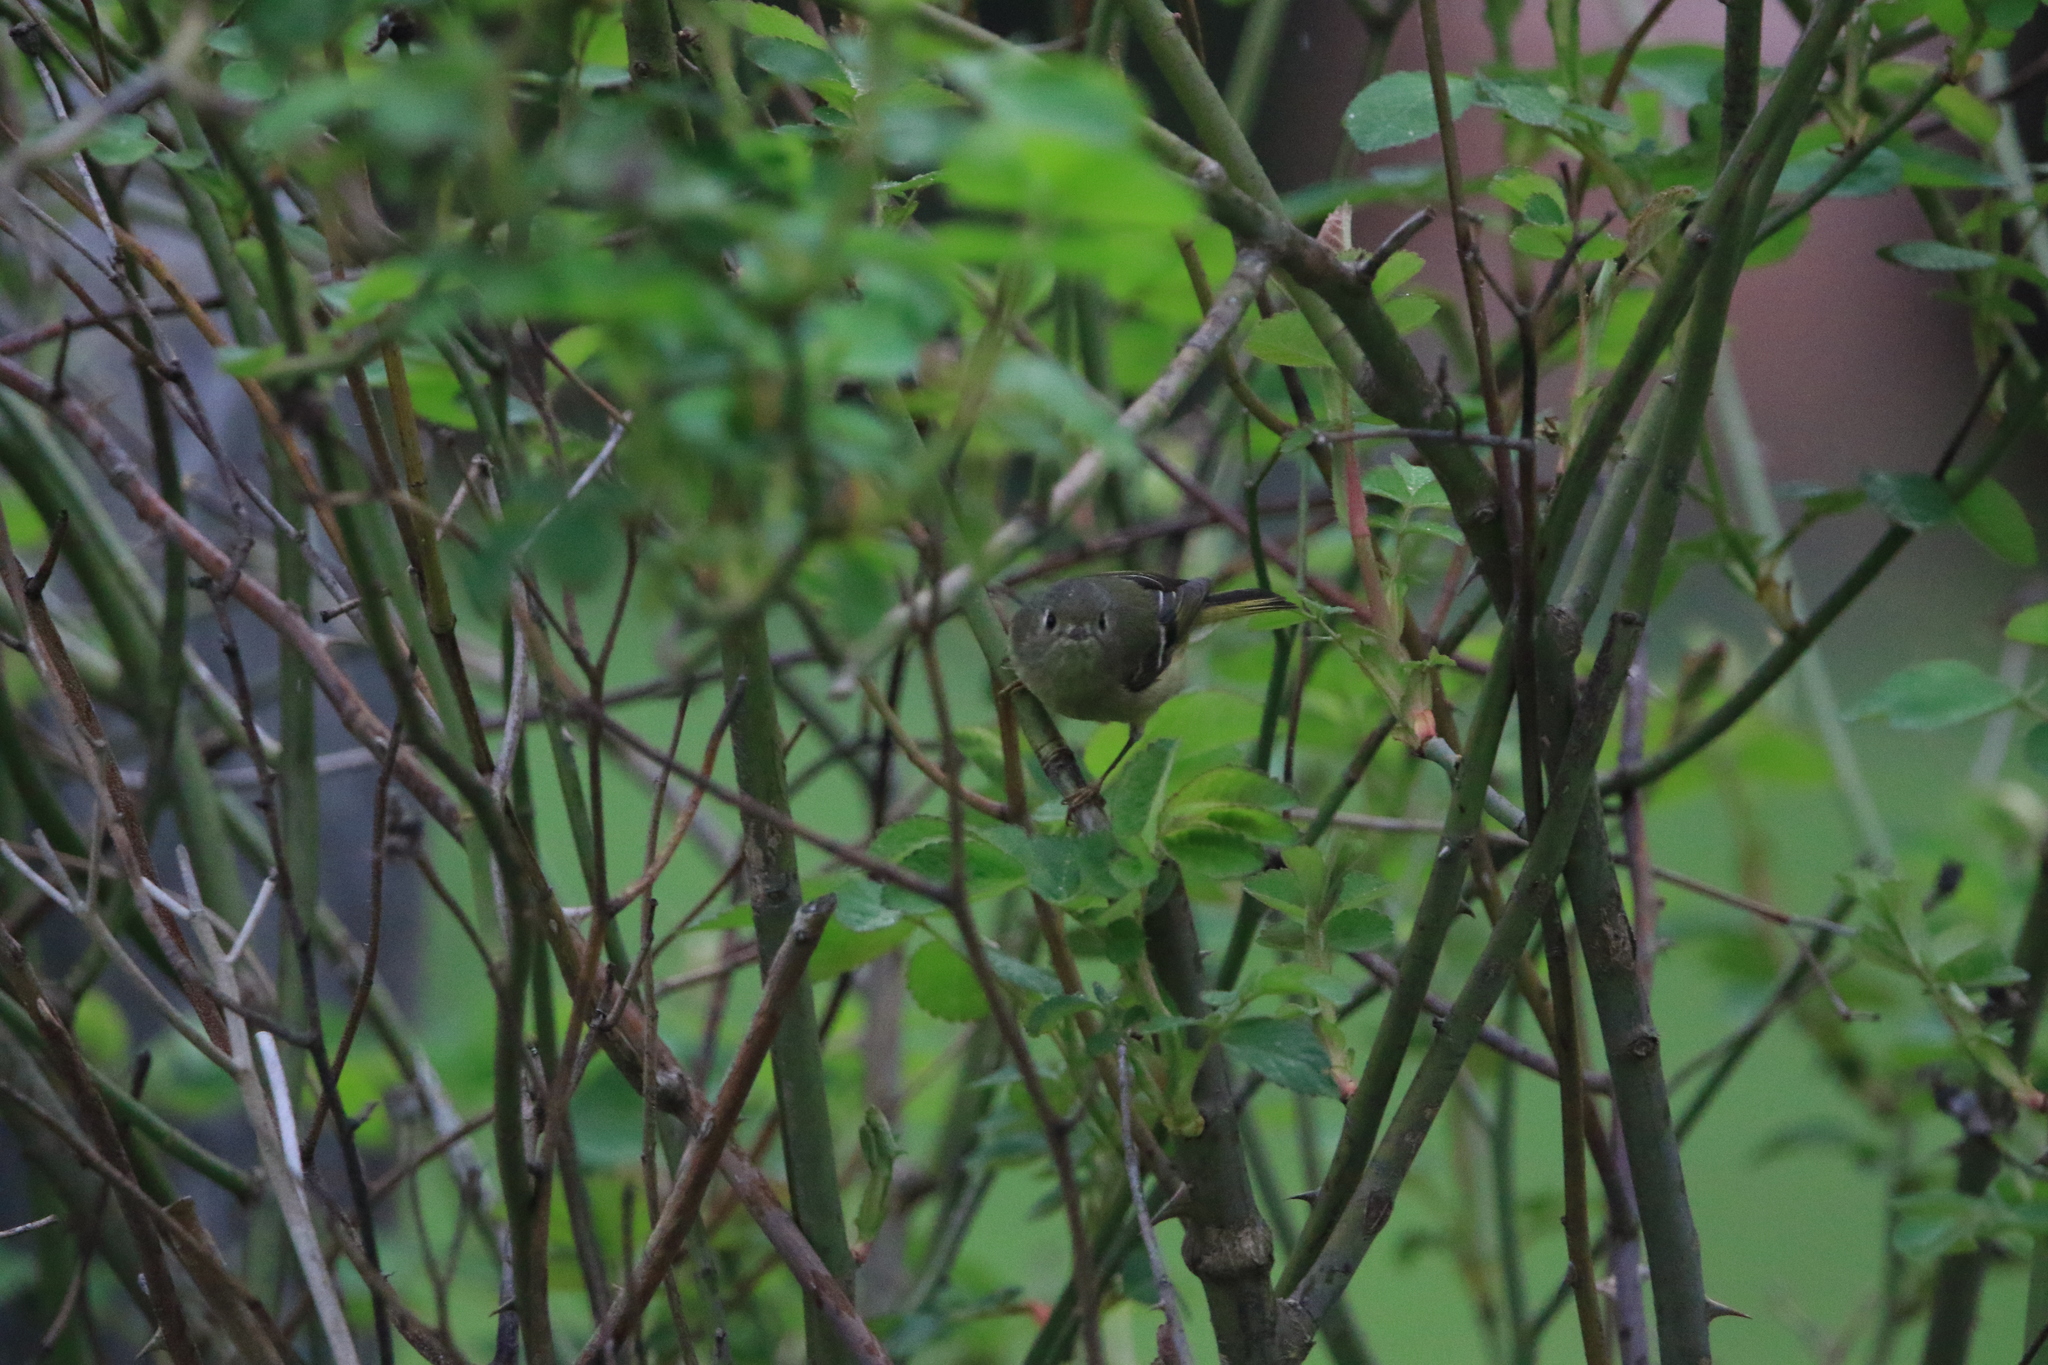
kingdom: Animalia
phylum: Chordata
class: Aves
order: Passeriformes
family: Regulidae
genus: Regulus
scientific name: Regulus calendula
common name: Ruby-crowned kinglet
